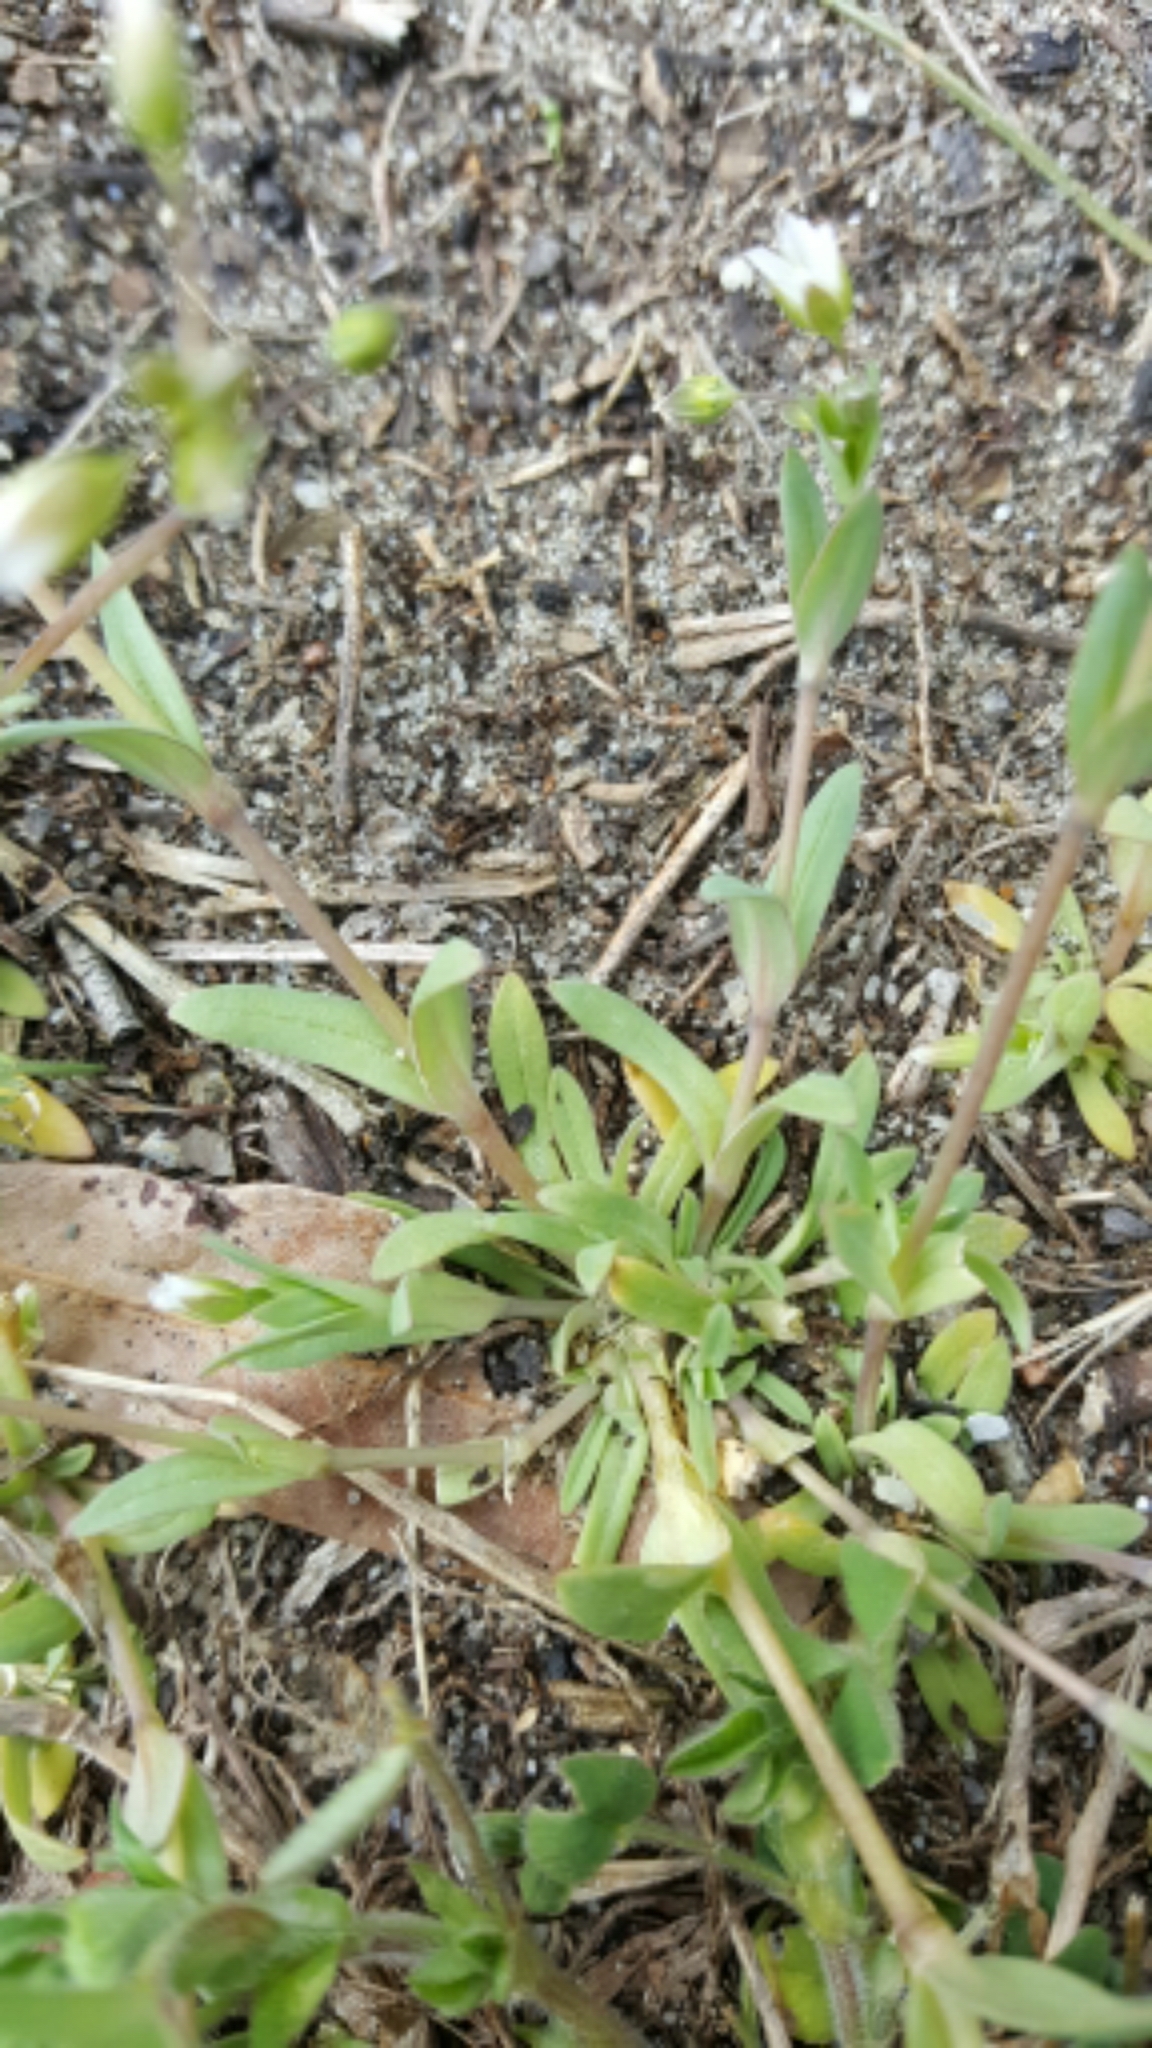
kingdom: Plantae
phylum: Tracheophyta
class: Magnoliopsida
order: Caryophyllales
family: Caryophyllaceae
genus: Holosteum
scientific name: Holosteum umbellatum
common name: Jagged chickweed
